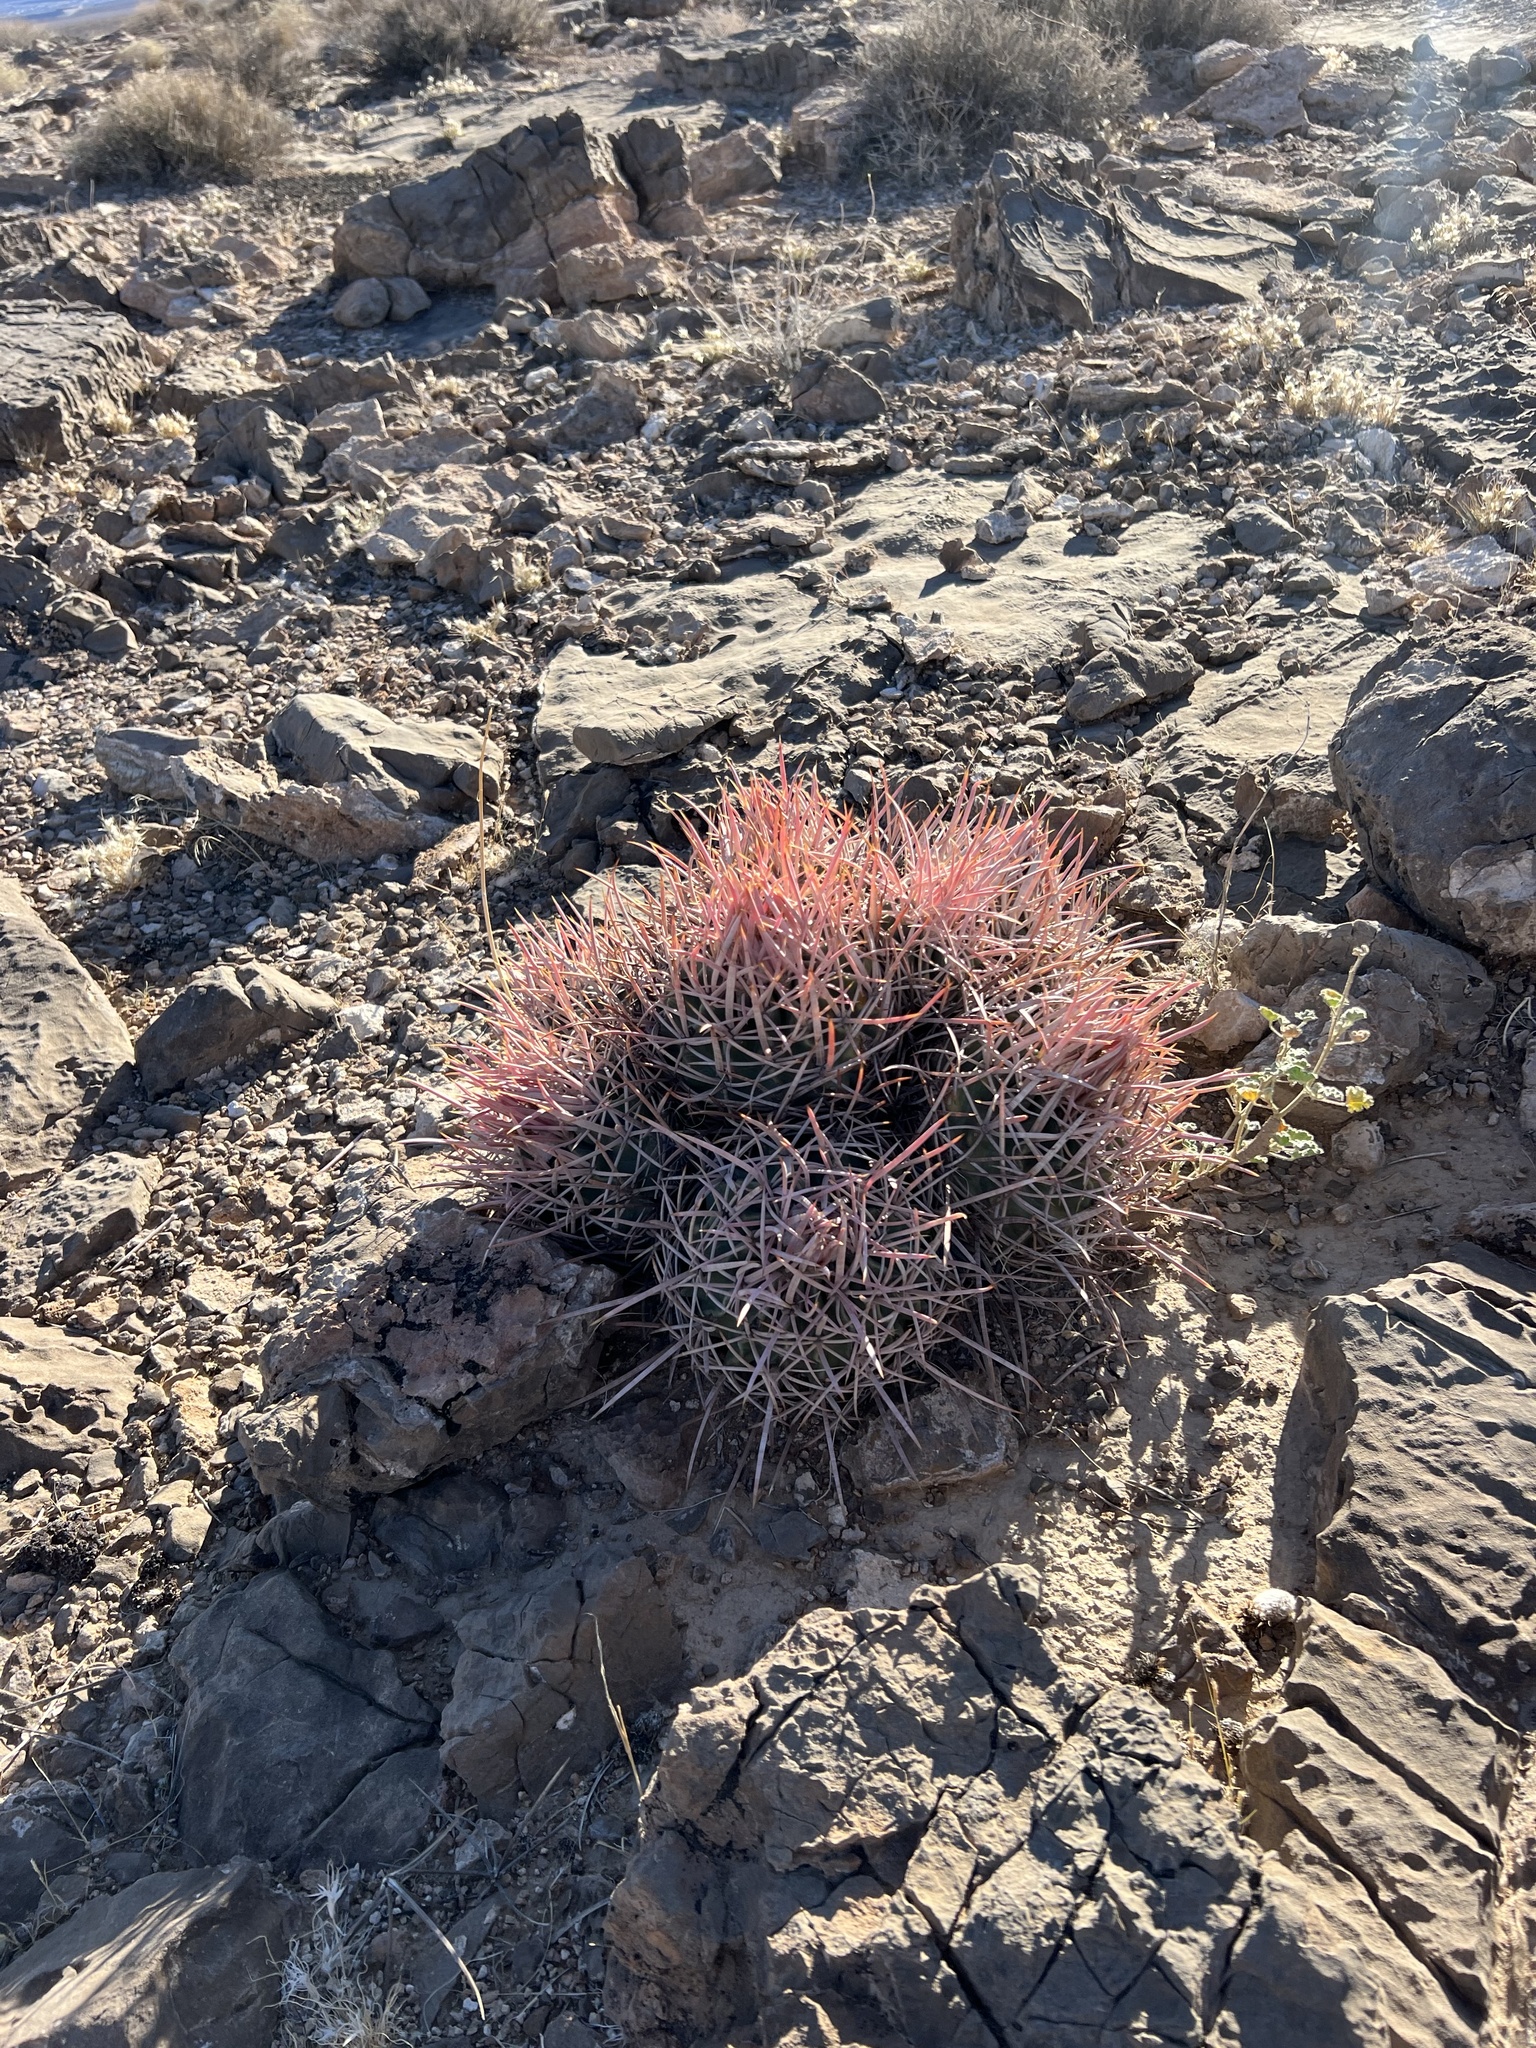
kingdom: Plantae
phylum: Tracheophyta
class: Magnoliopsida
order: Caryophyllales
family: Cactaceae
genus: Echinocactus
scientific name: Echinocactus polycephalus
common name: Cottontop cactus
